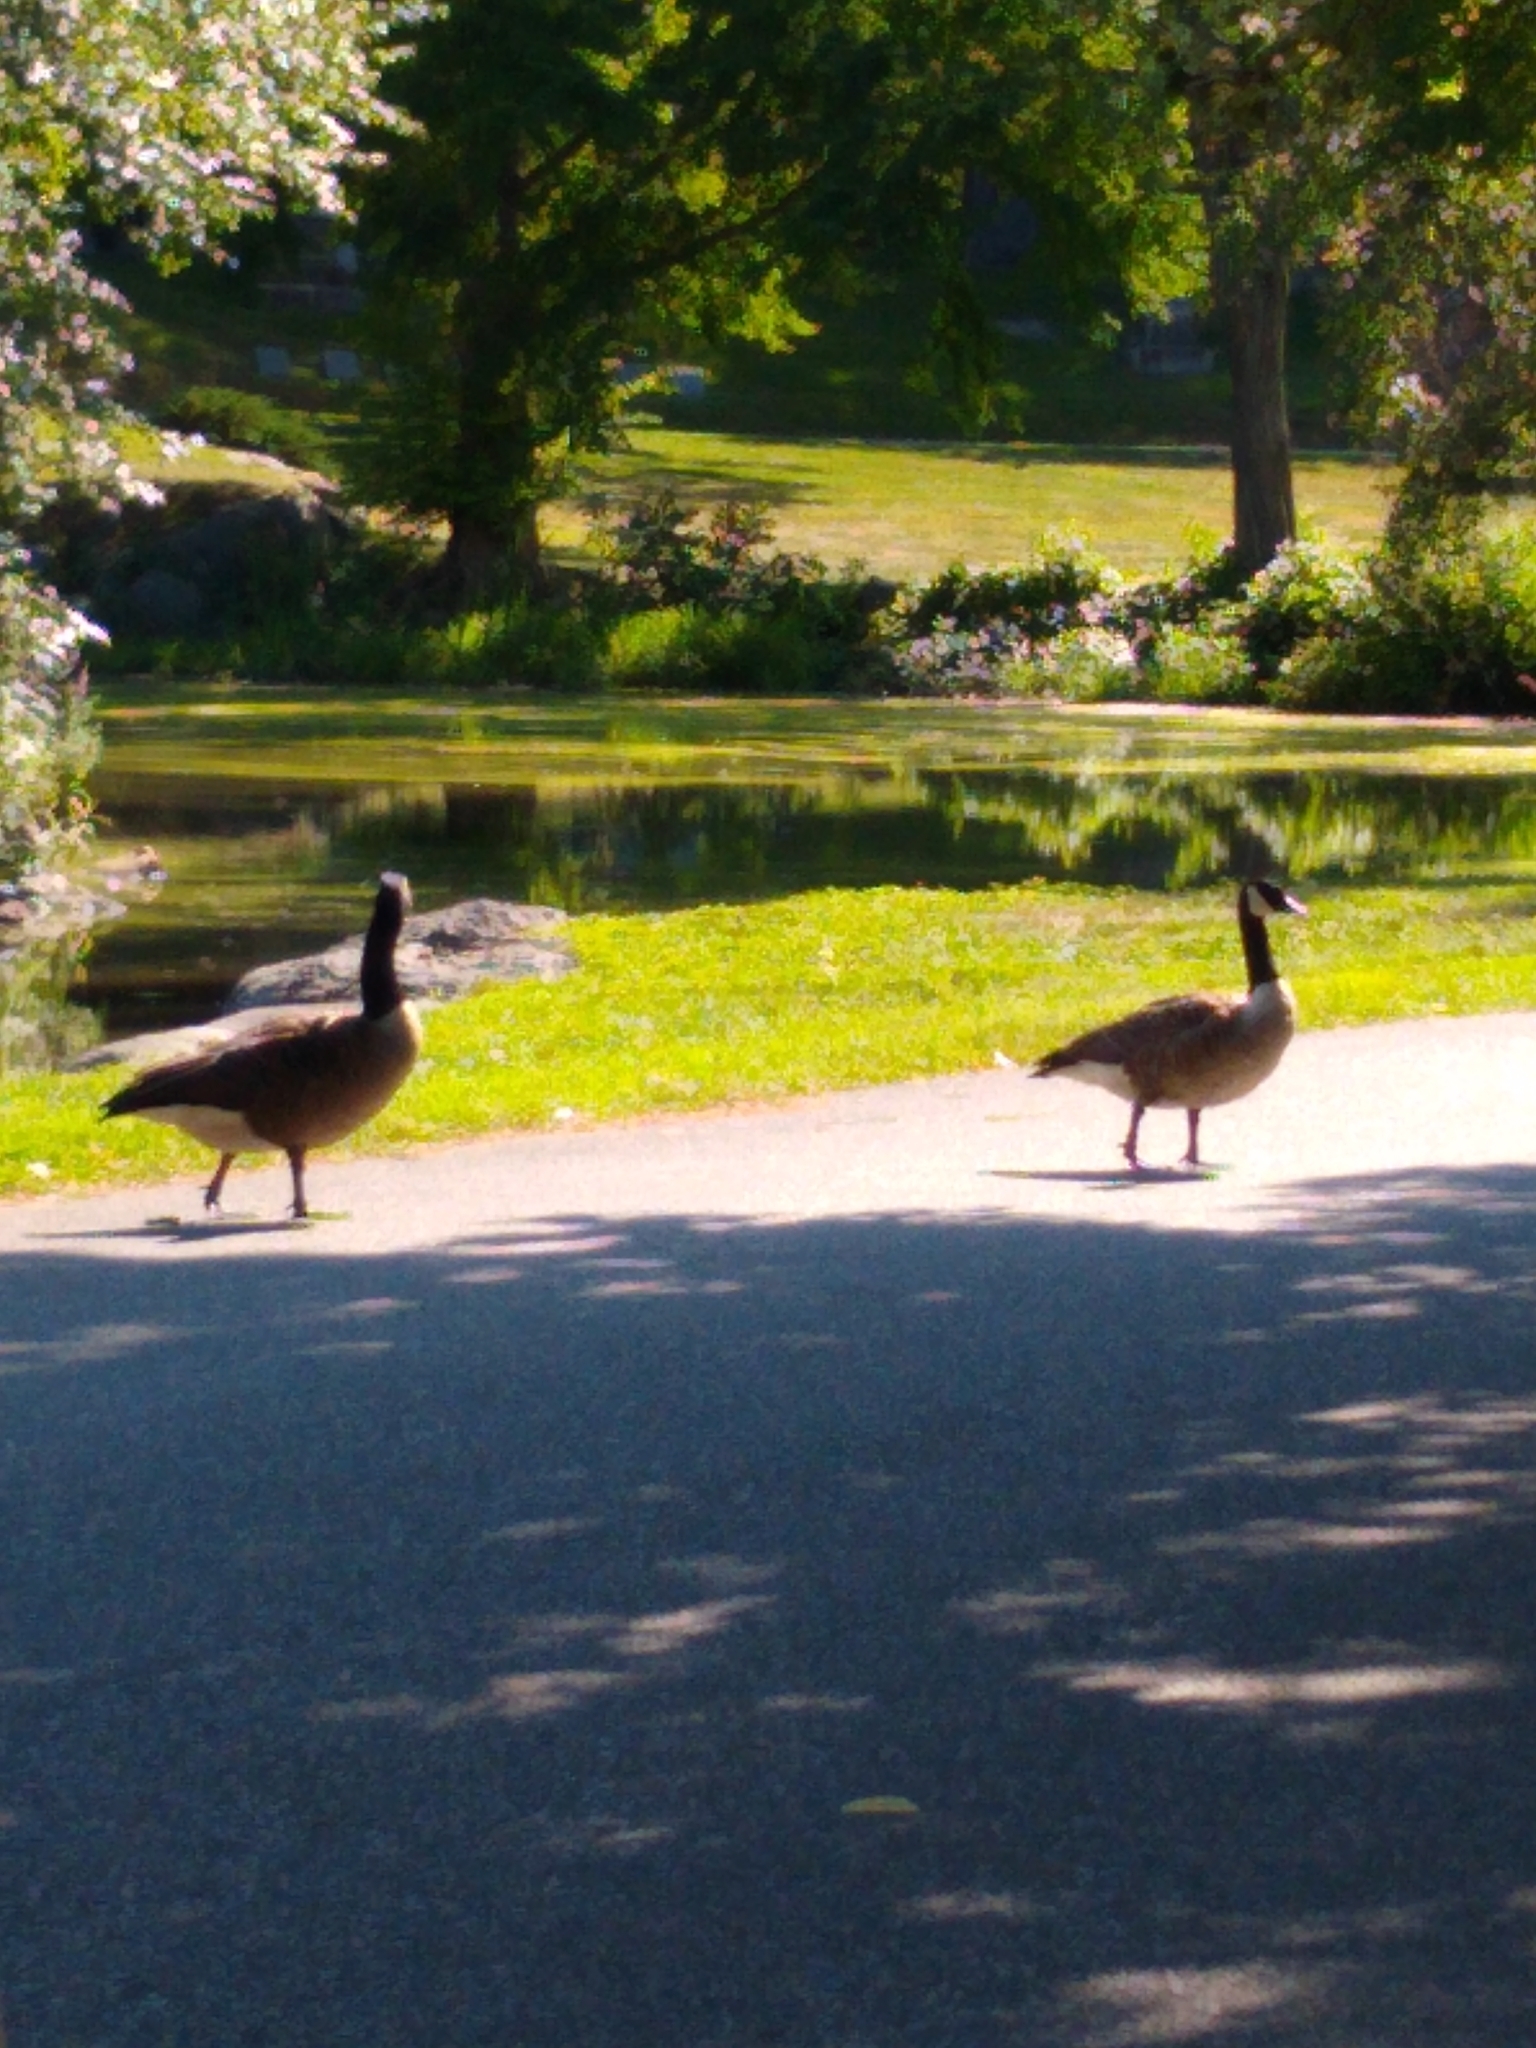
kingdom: Animalia
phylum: Chordata
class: Aves
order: Anseriformes
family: Anatidae
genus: Branta
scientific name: Branta canadensis
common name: Canada goose
